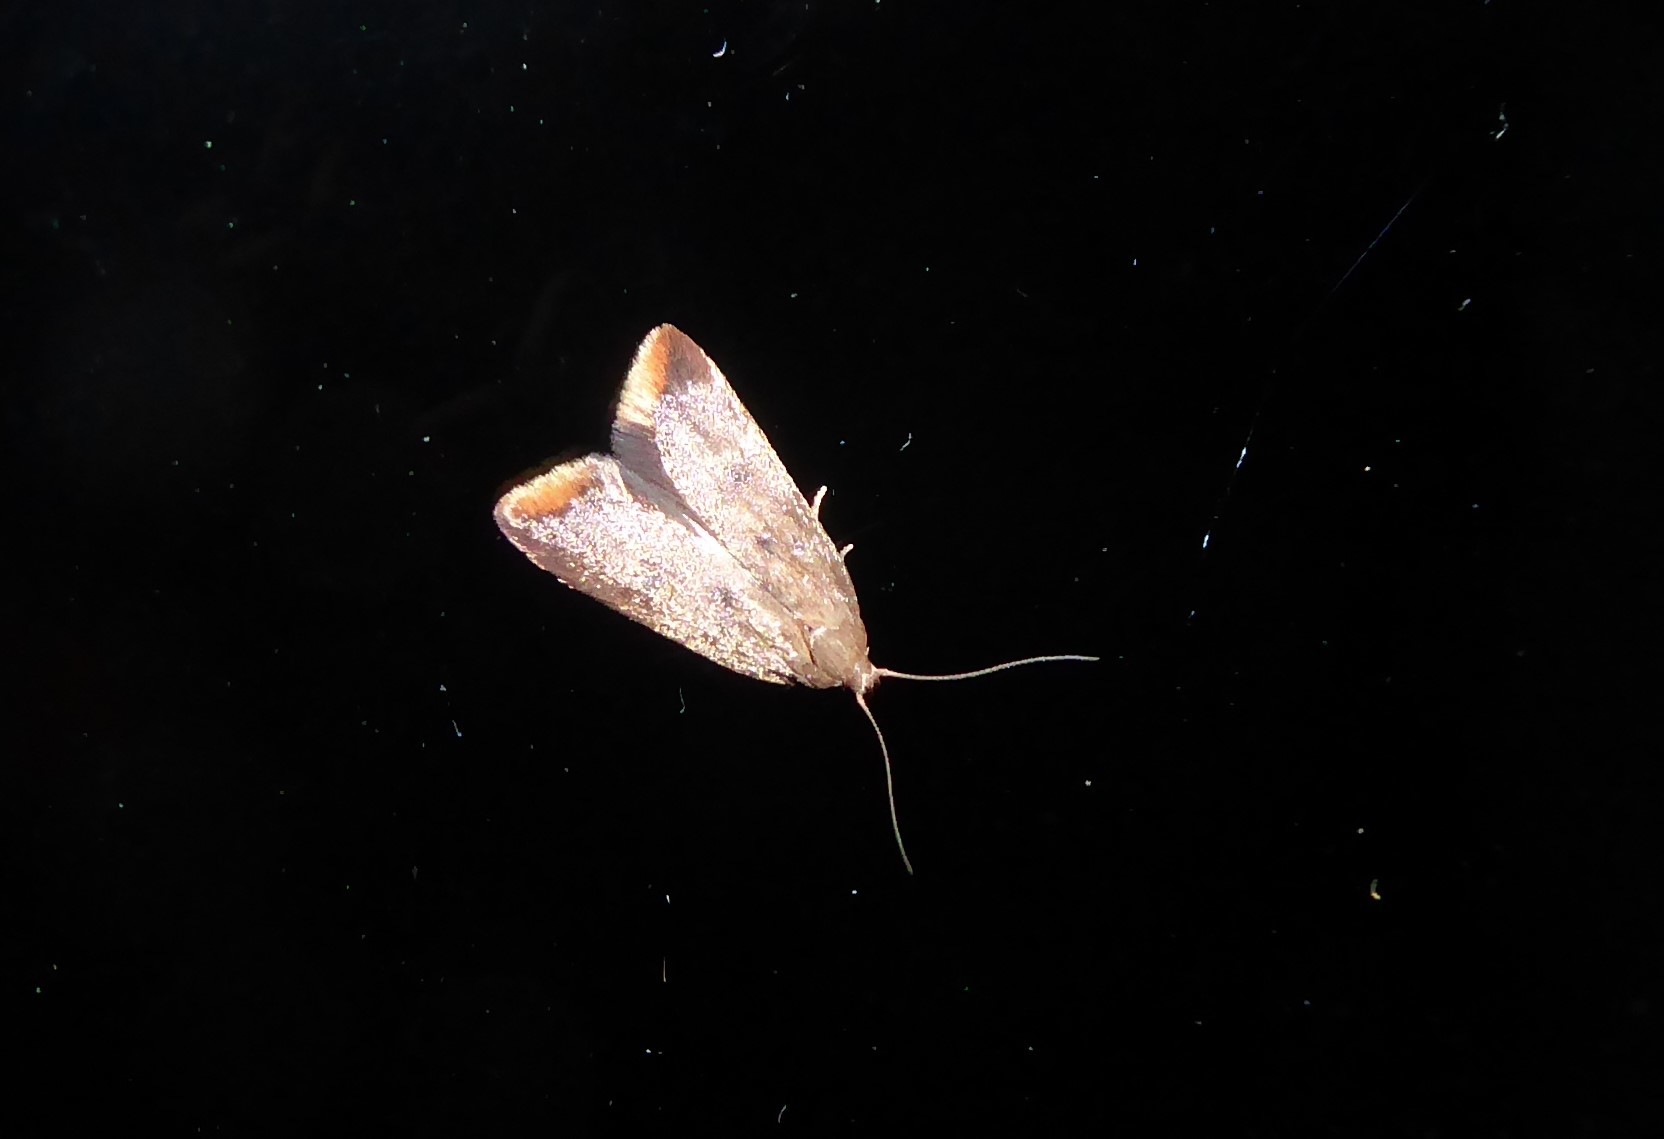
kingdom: Animalia
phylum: Arthropoda
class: Insecta
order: Lepidoptera
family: Oecophoridae
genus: Tachystola
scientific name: Tachystola acroxantha
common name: Ruddy streak
